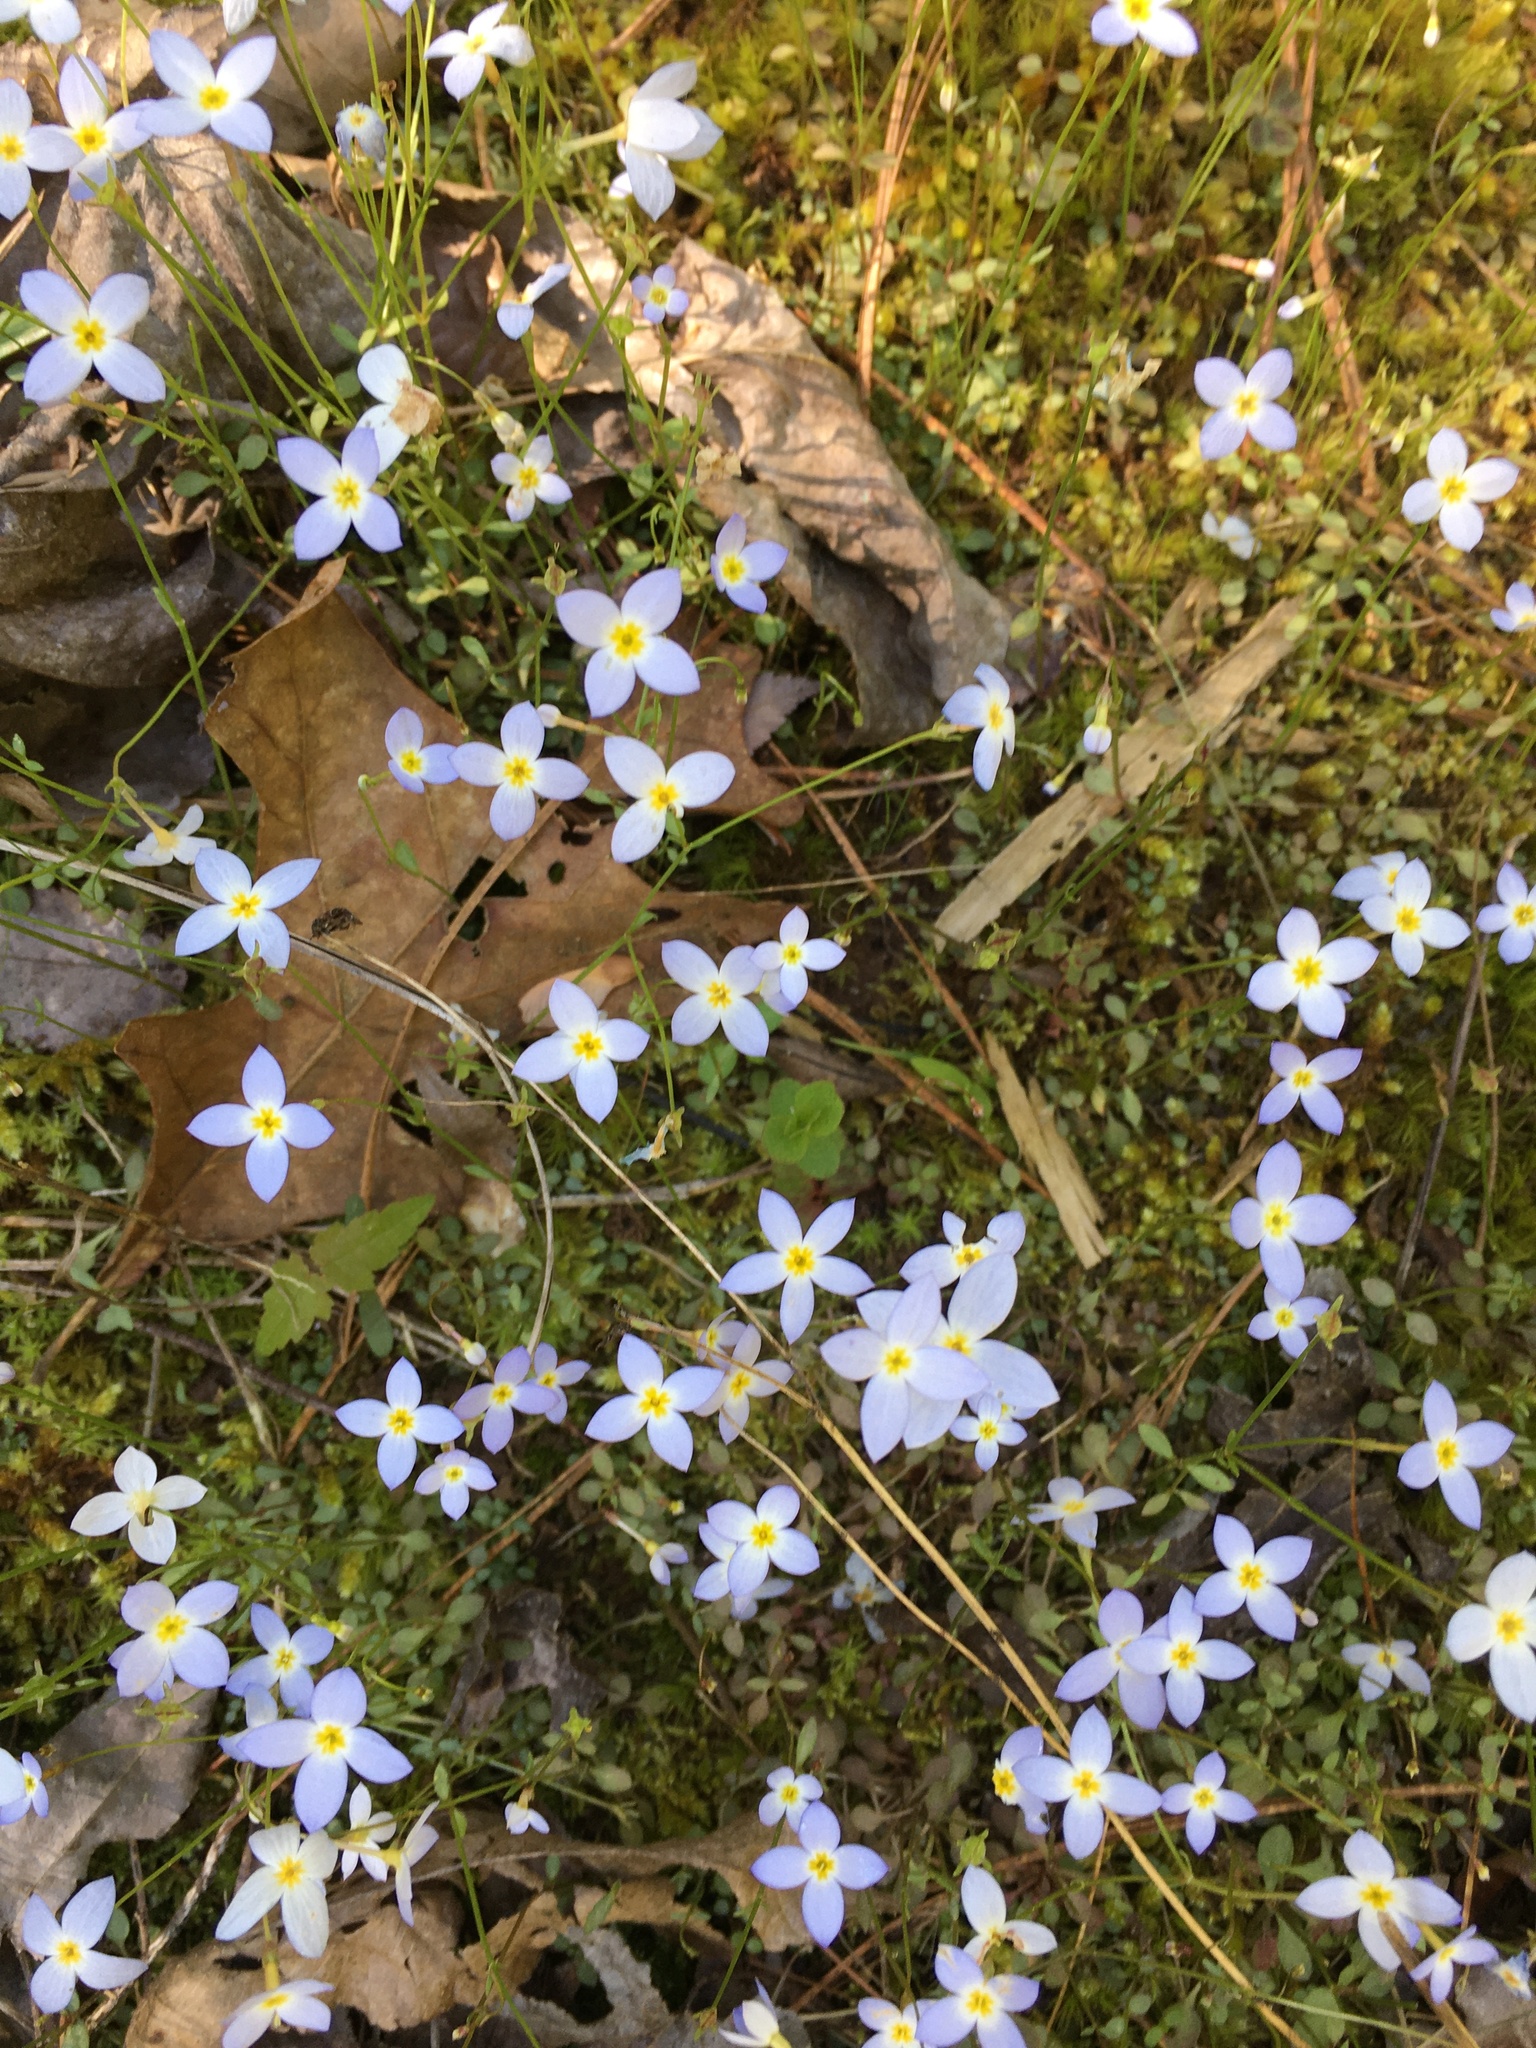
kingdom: Plantae
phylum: Tracheophyta
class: Magnoliopsida
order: Gentianales
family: Rubiaceae
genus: Houstonia
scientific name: Houstonia caerulea
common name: Bluets
